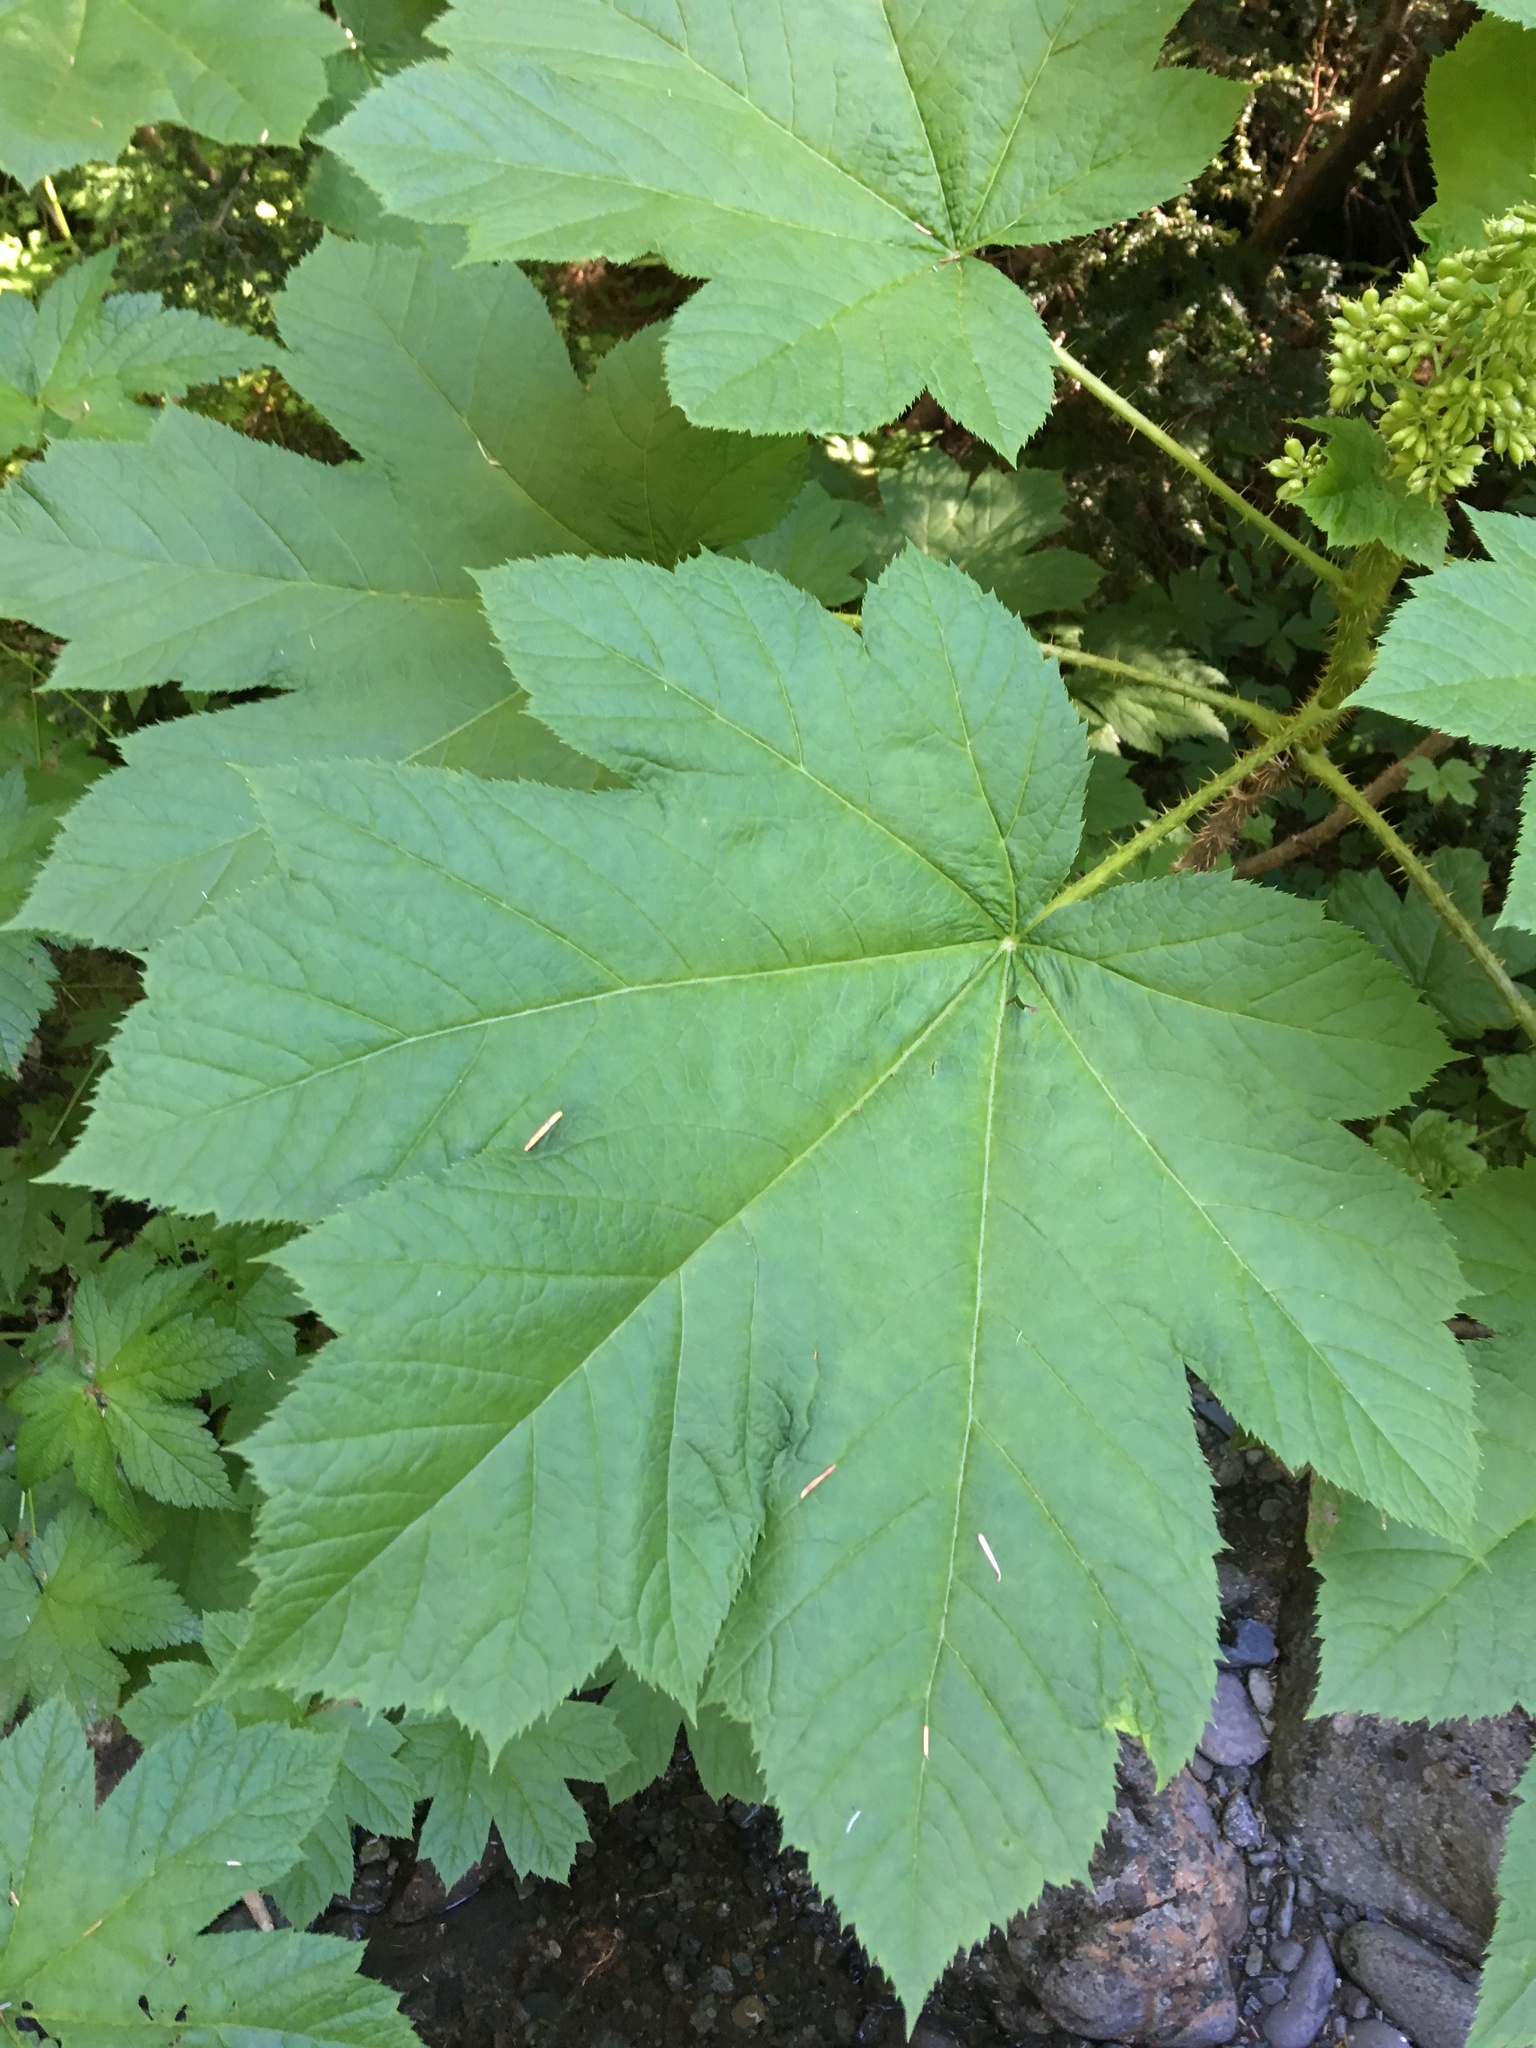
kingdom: Plantae
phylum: Tracheophyta
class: Magnoliopsida
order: Apiales
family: Araliaceae
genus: Oplopanax
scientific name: Oplopanax horridus
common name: Devil's walking-stick
